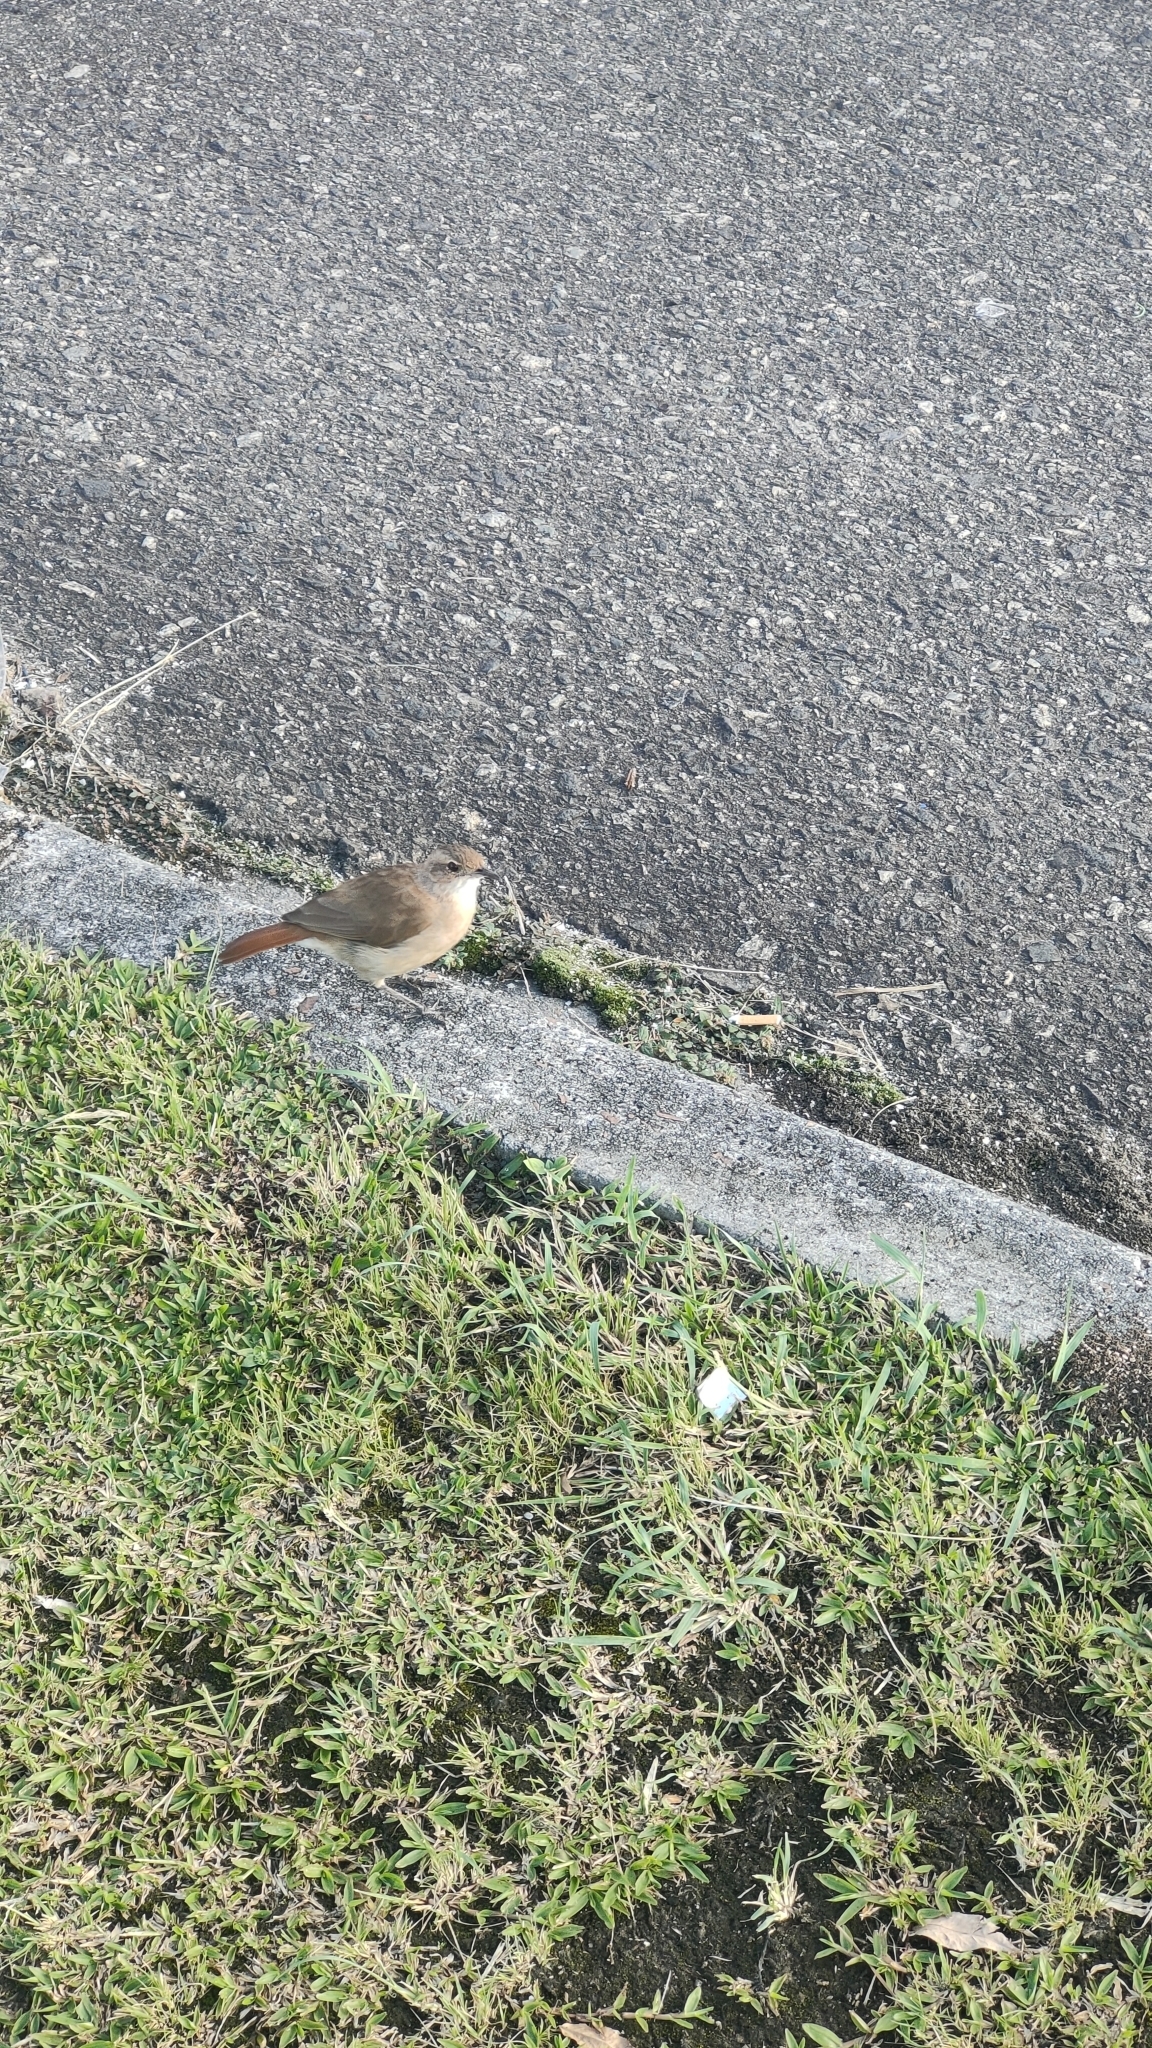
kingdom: Animalia
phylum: Chordata
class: Aves
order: Passeriformes
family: Furnariidae
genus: Furnarius
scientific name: Furnarius rufus
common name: Rufous hornero
